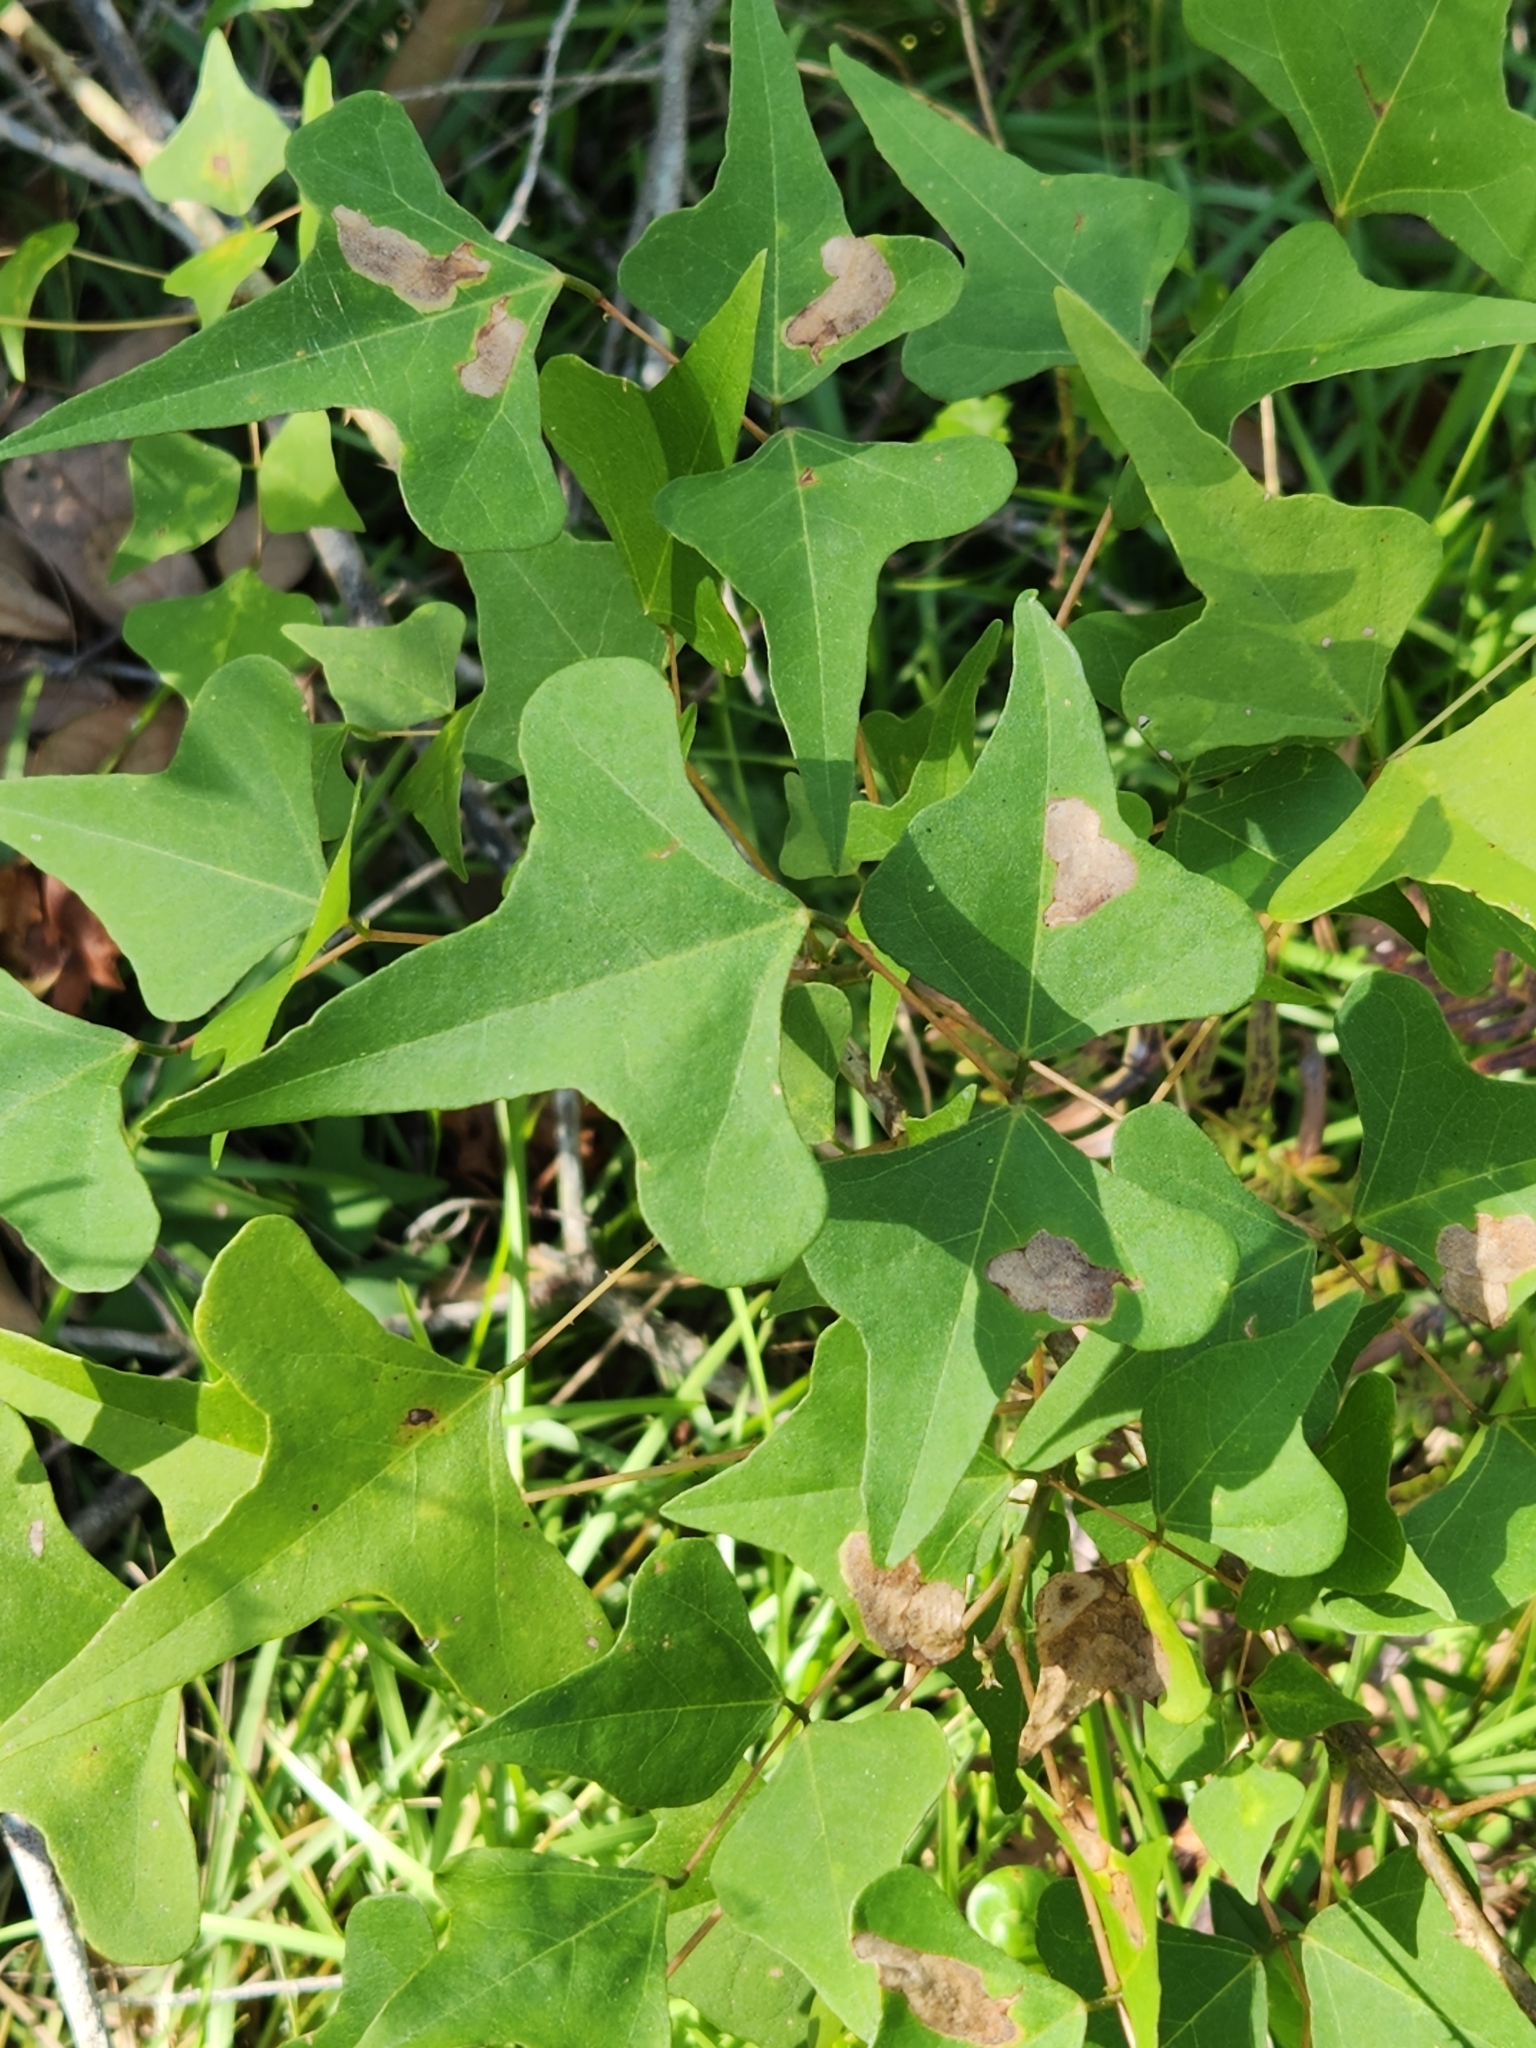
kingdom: Plantae
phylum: Tracheophyta
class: Magnoliopsida
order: Fabales
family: Fabaceae
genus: Erythrina
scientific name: Erythrina herbacea
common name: Coral-bean
